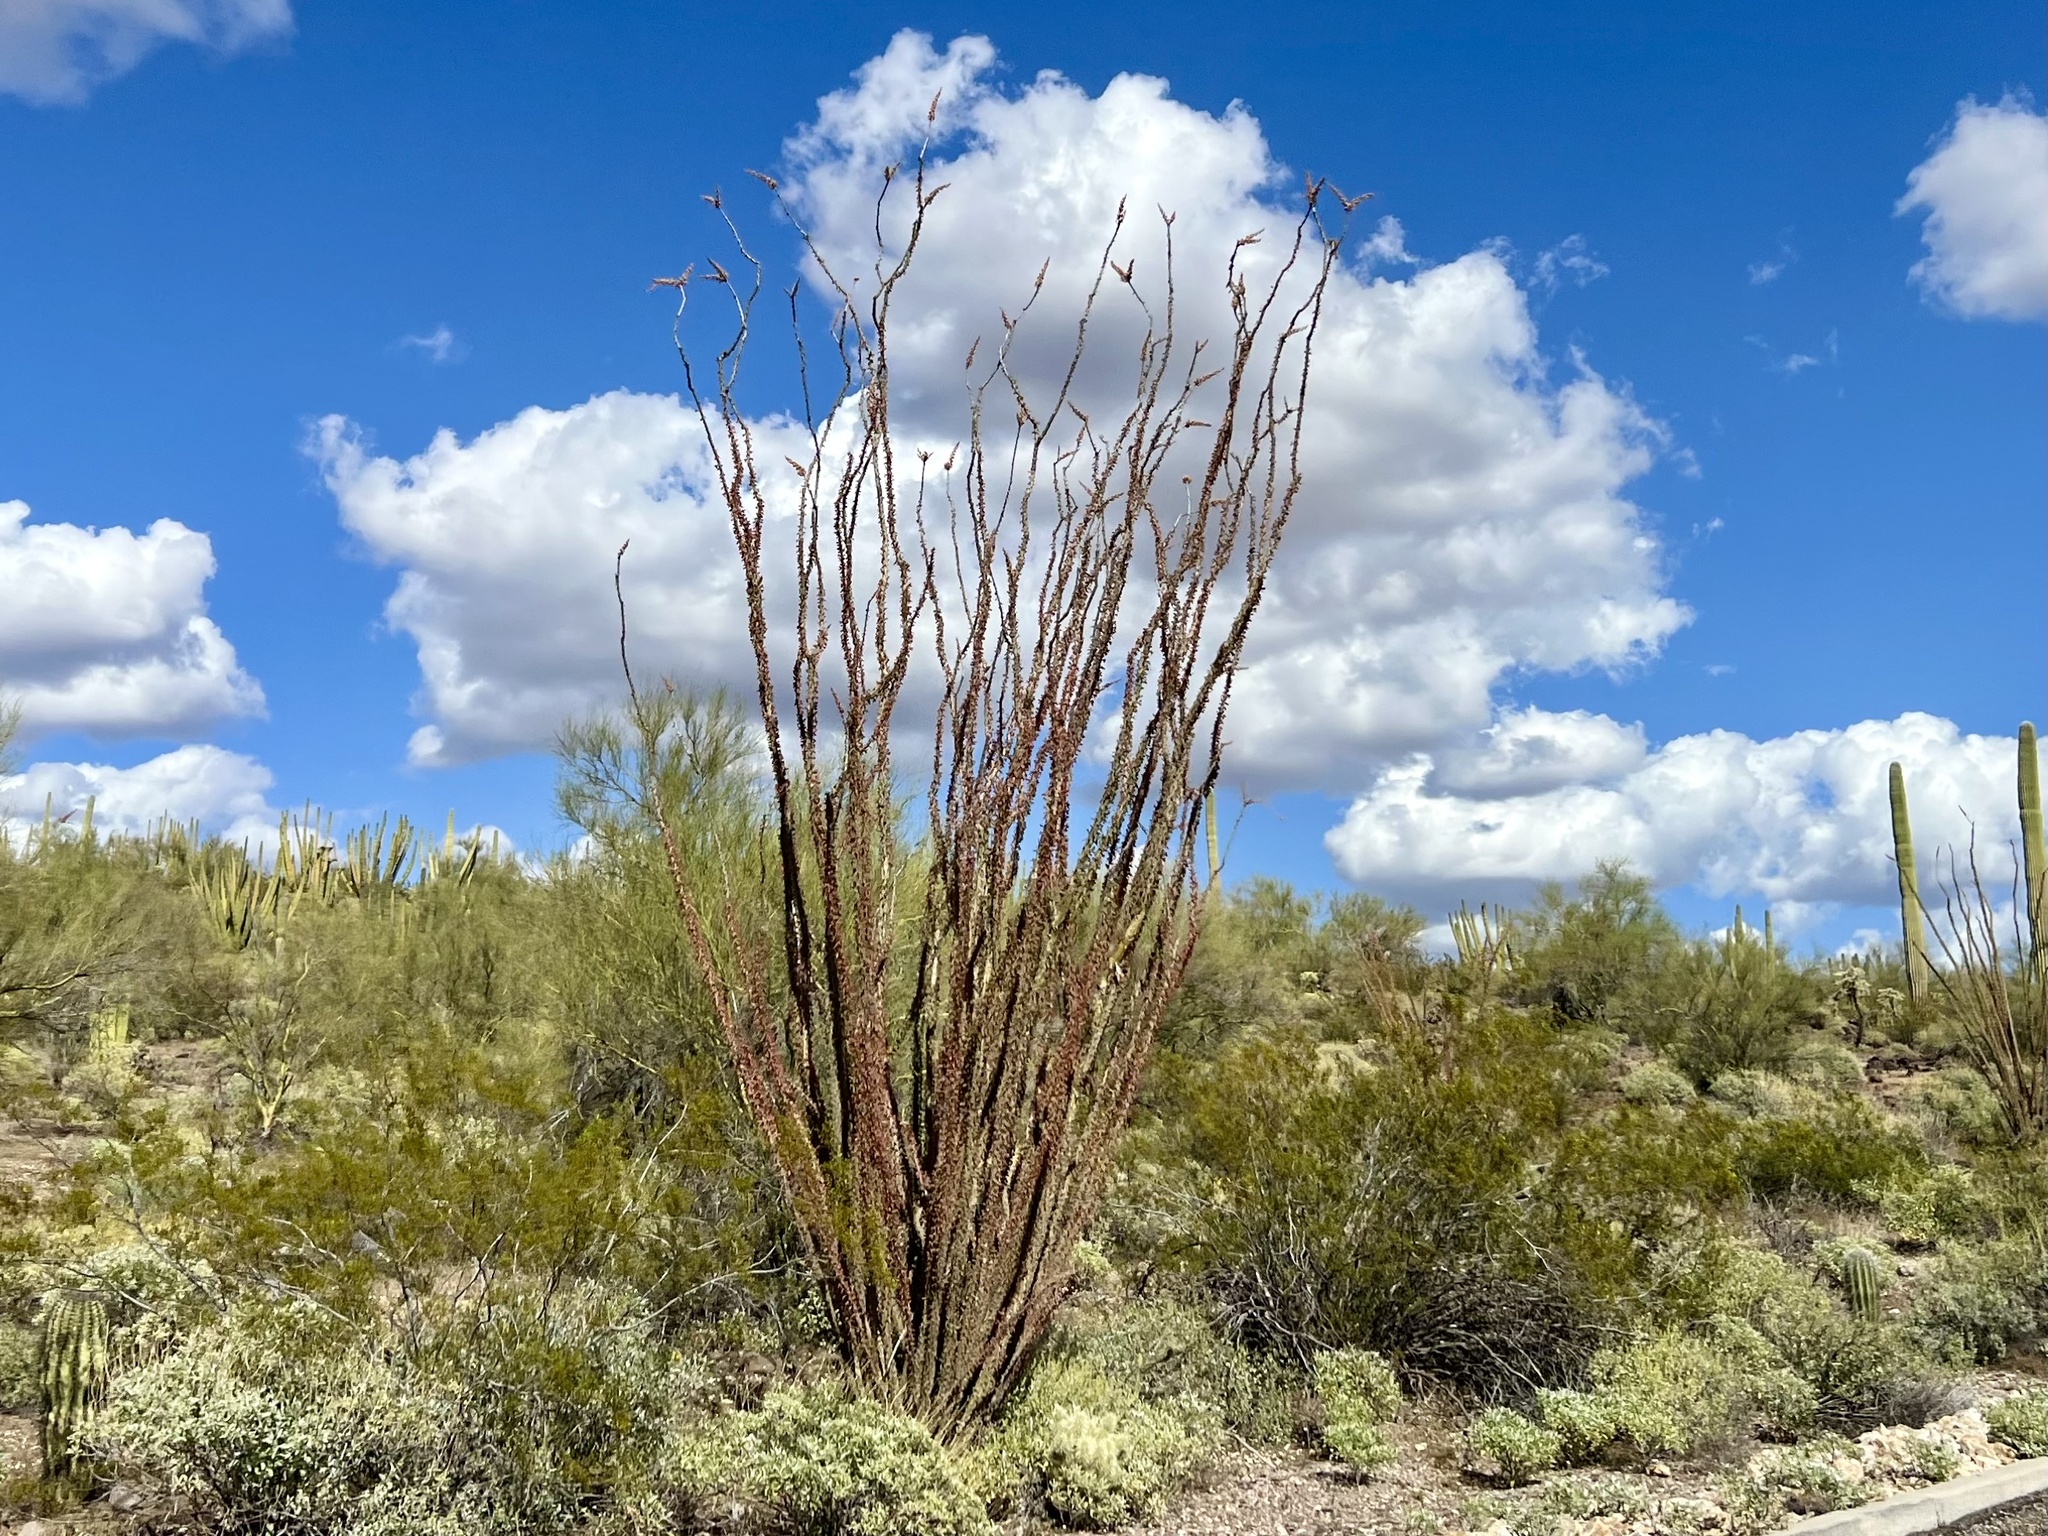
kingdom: Plantae
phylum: Tracheophyta
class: Magnoliopsida
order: Ericales
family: Fouquieriaceae
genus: Fouquieria
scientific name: Fouquieria splendens
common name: Vine-cactus
